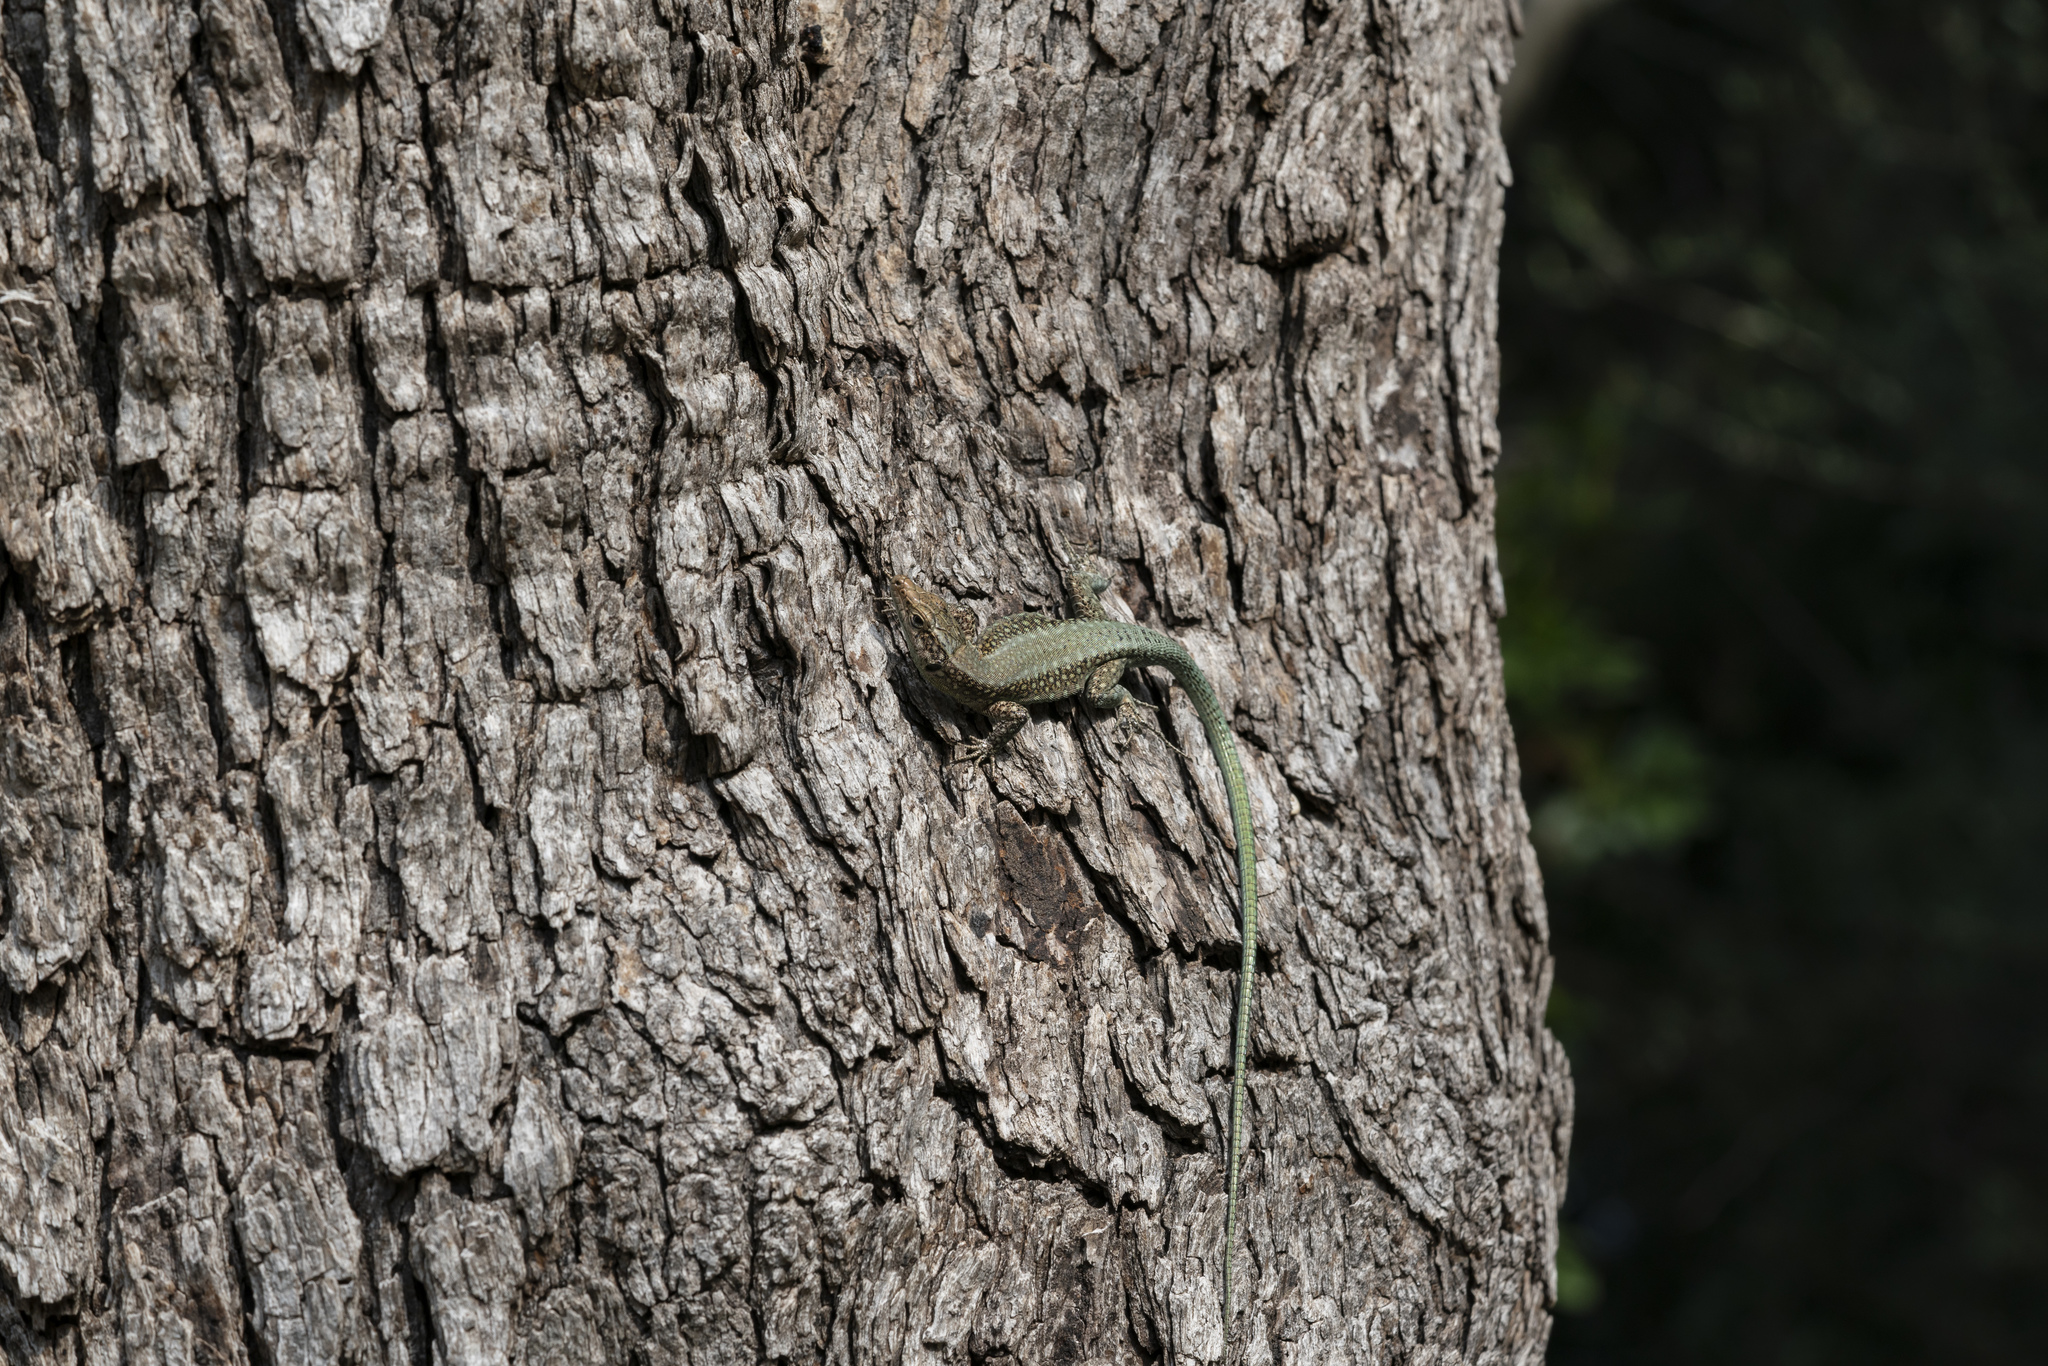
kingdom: Animalia
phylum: Chordata
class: Squamata
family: Lacertidae
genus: Anatololacerta
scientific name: Anatololacerta pelasgiana
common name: Pelasgian rock lizard
